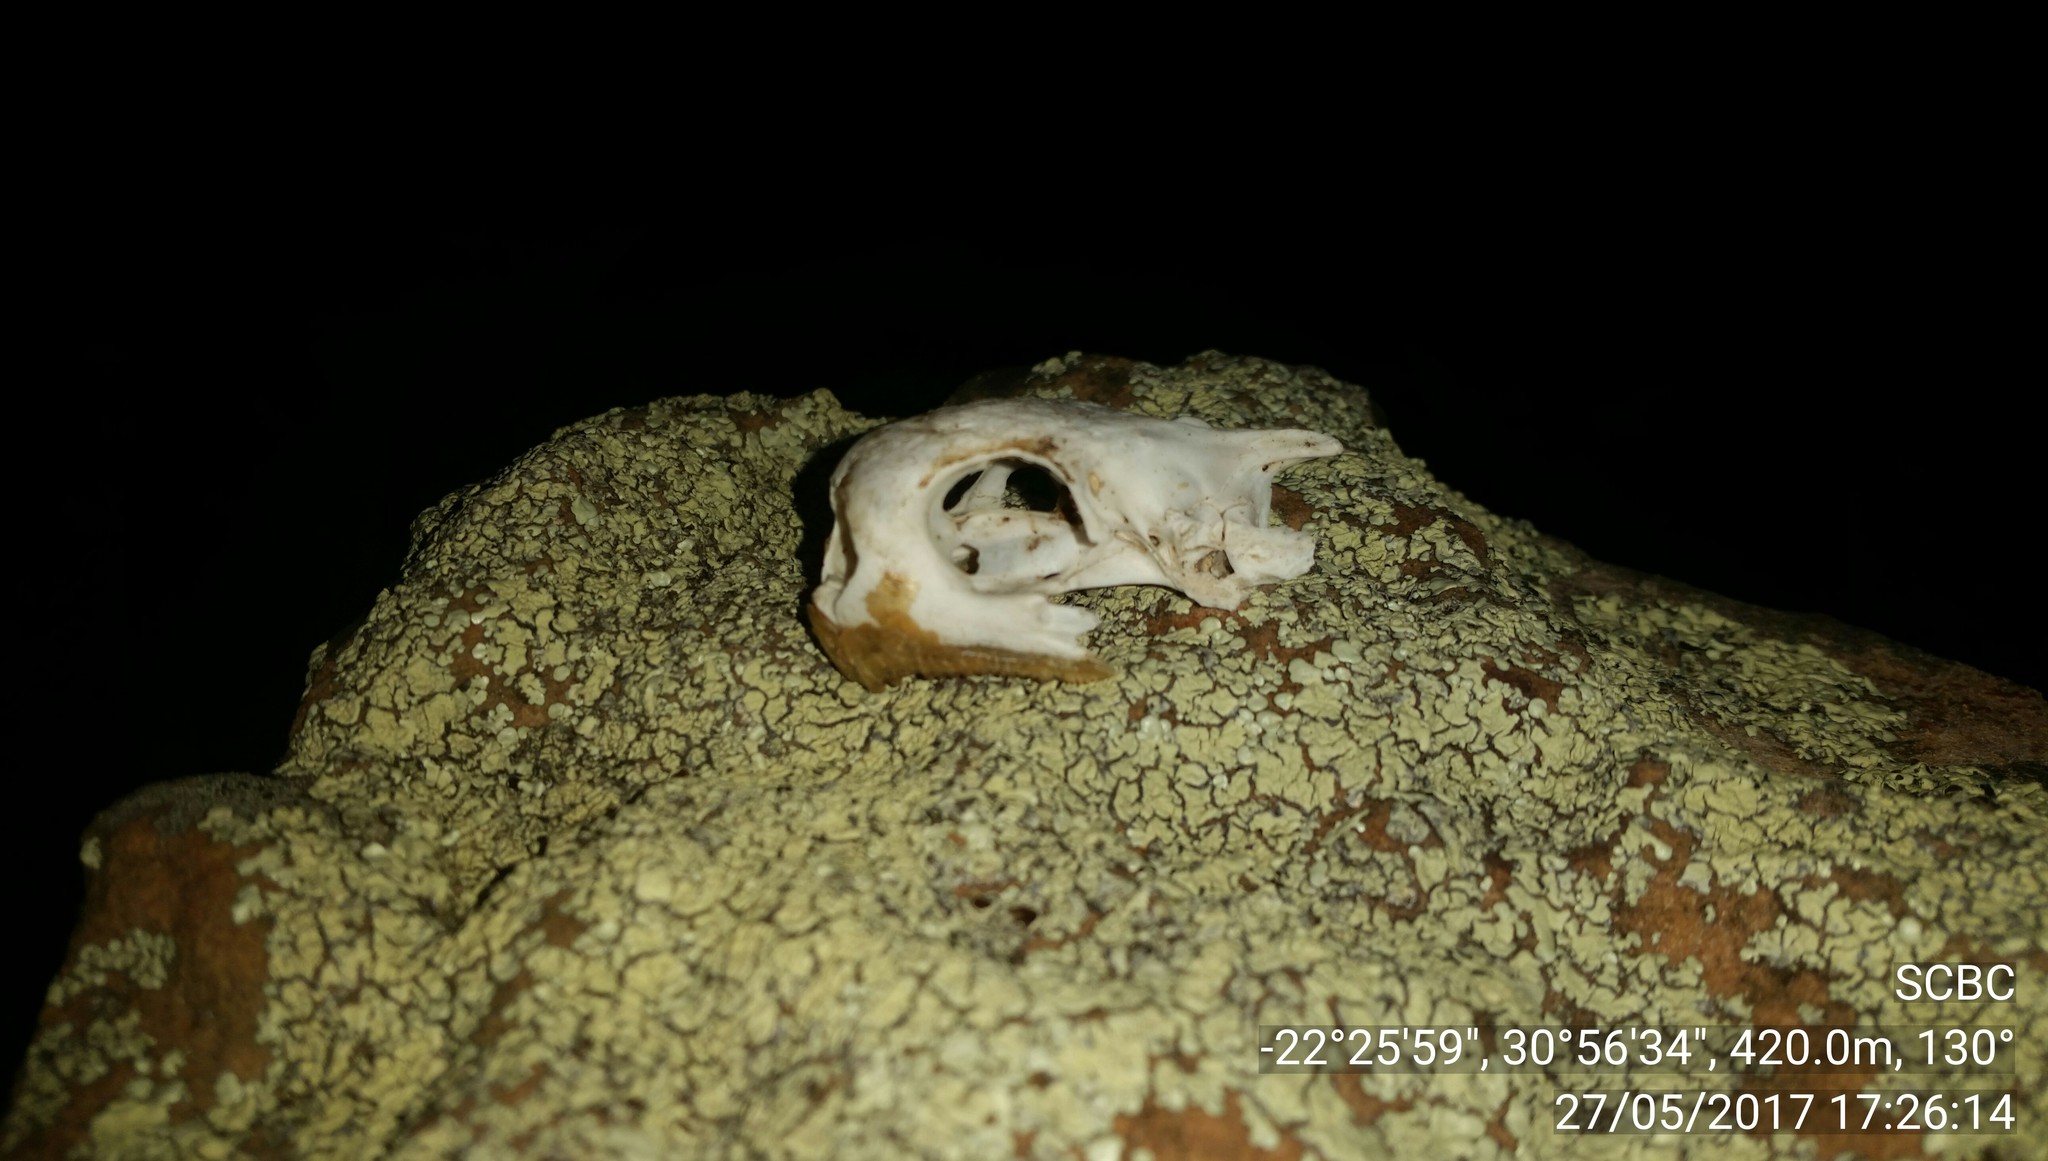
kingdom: Animalia
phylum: Chordata
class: Testudines
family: Testudinidae
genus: Stigmochelys
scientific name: Stigmochelys pardalis
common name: Leopard tortoise
